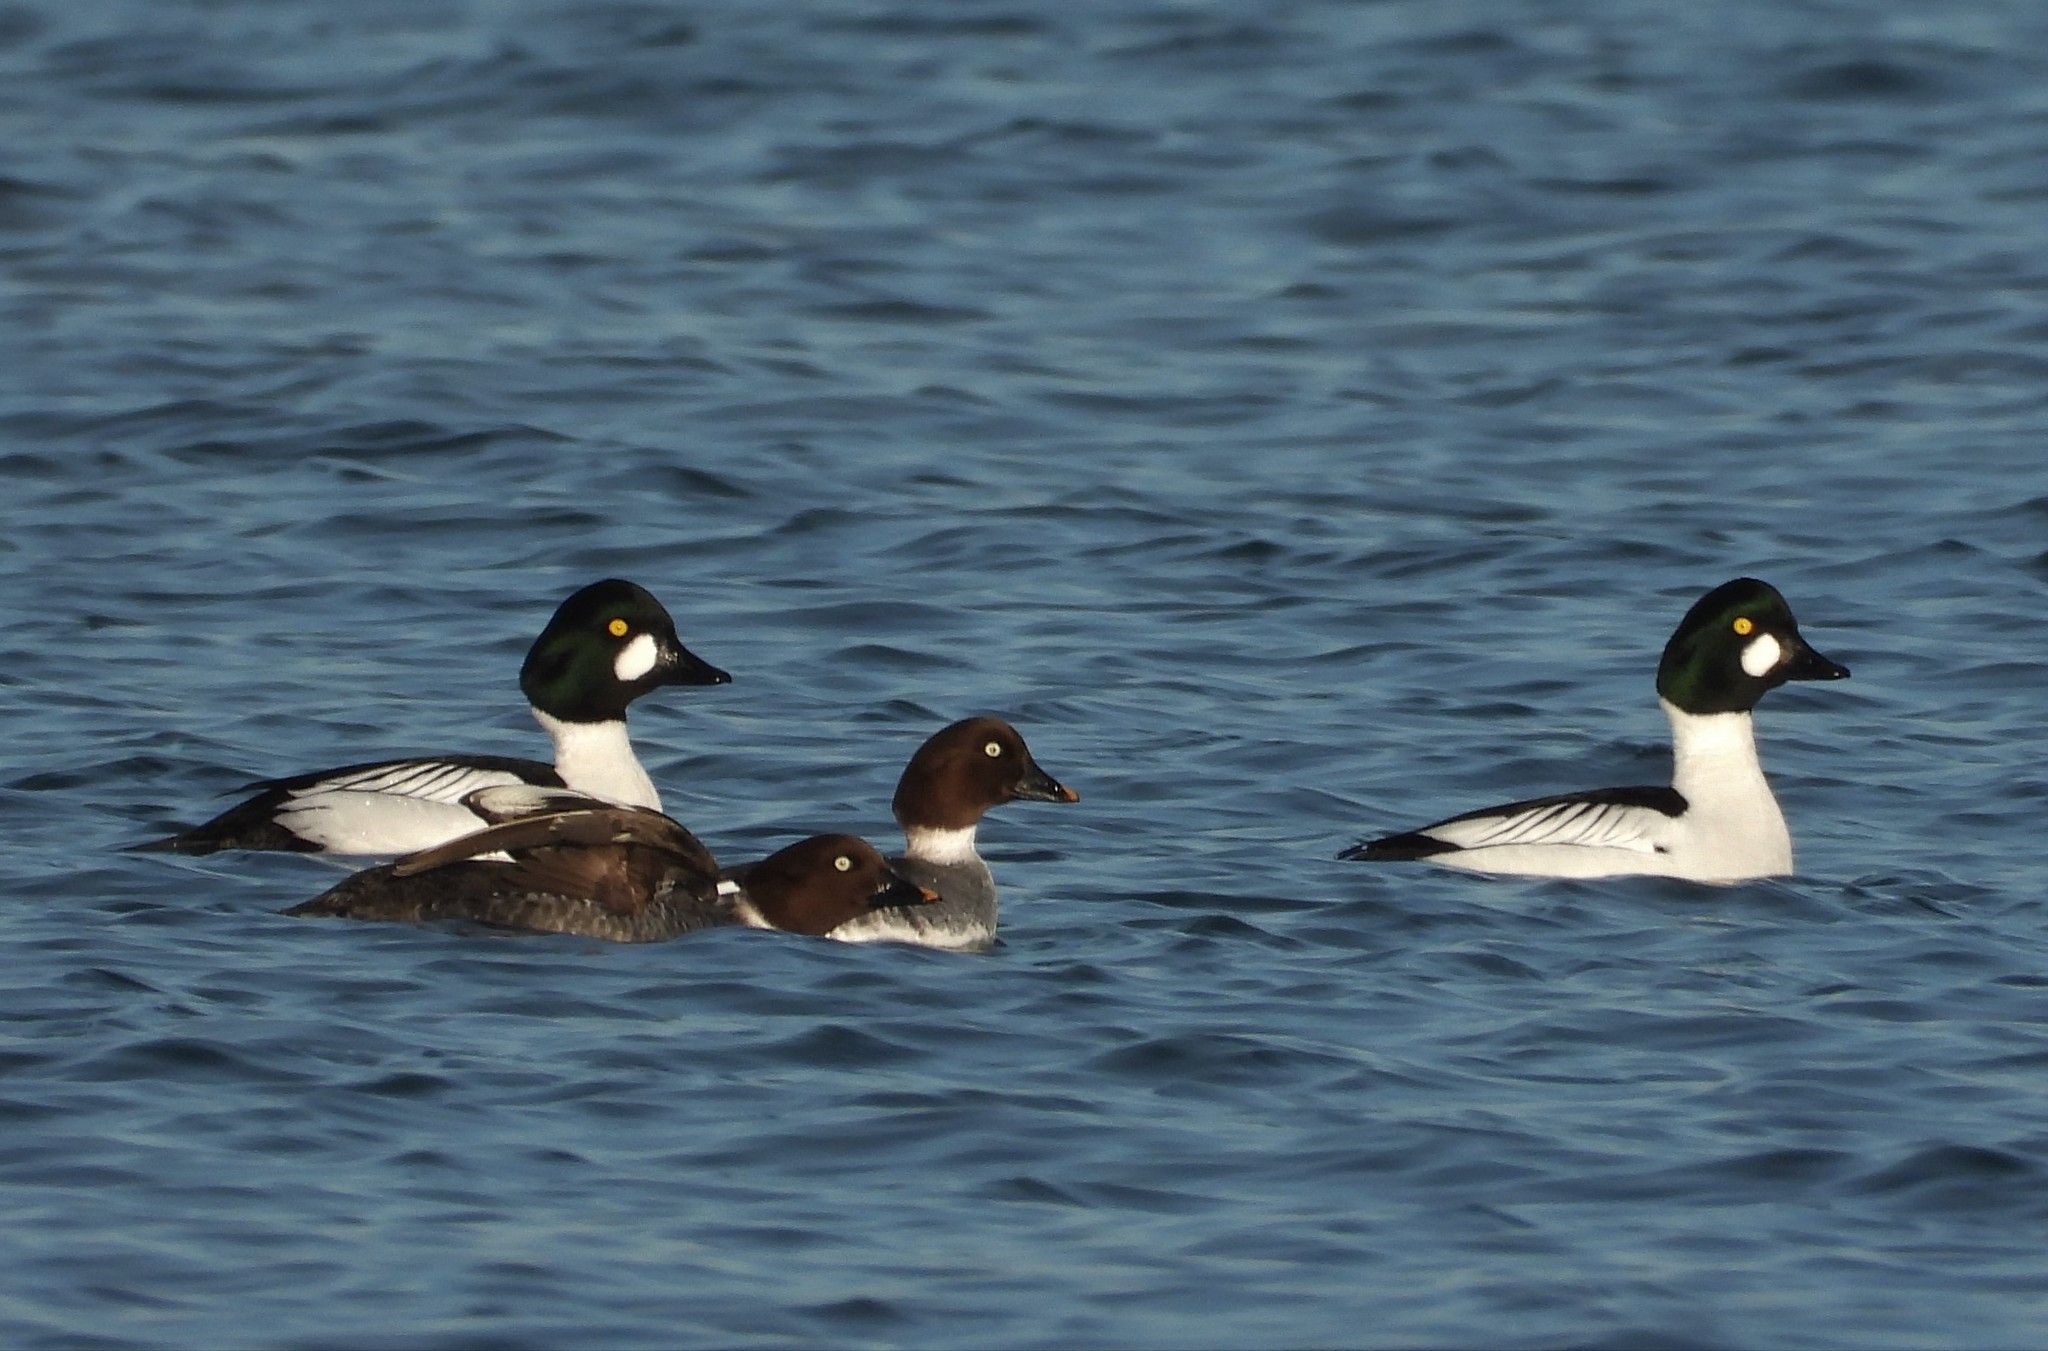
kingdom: Animalia
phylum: Chordata
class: Aves
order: Anseriformes
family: Anatidae
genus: Bucephala
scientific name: Bucephala clangula
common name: Common goldeneye
